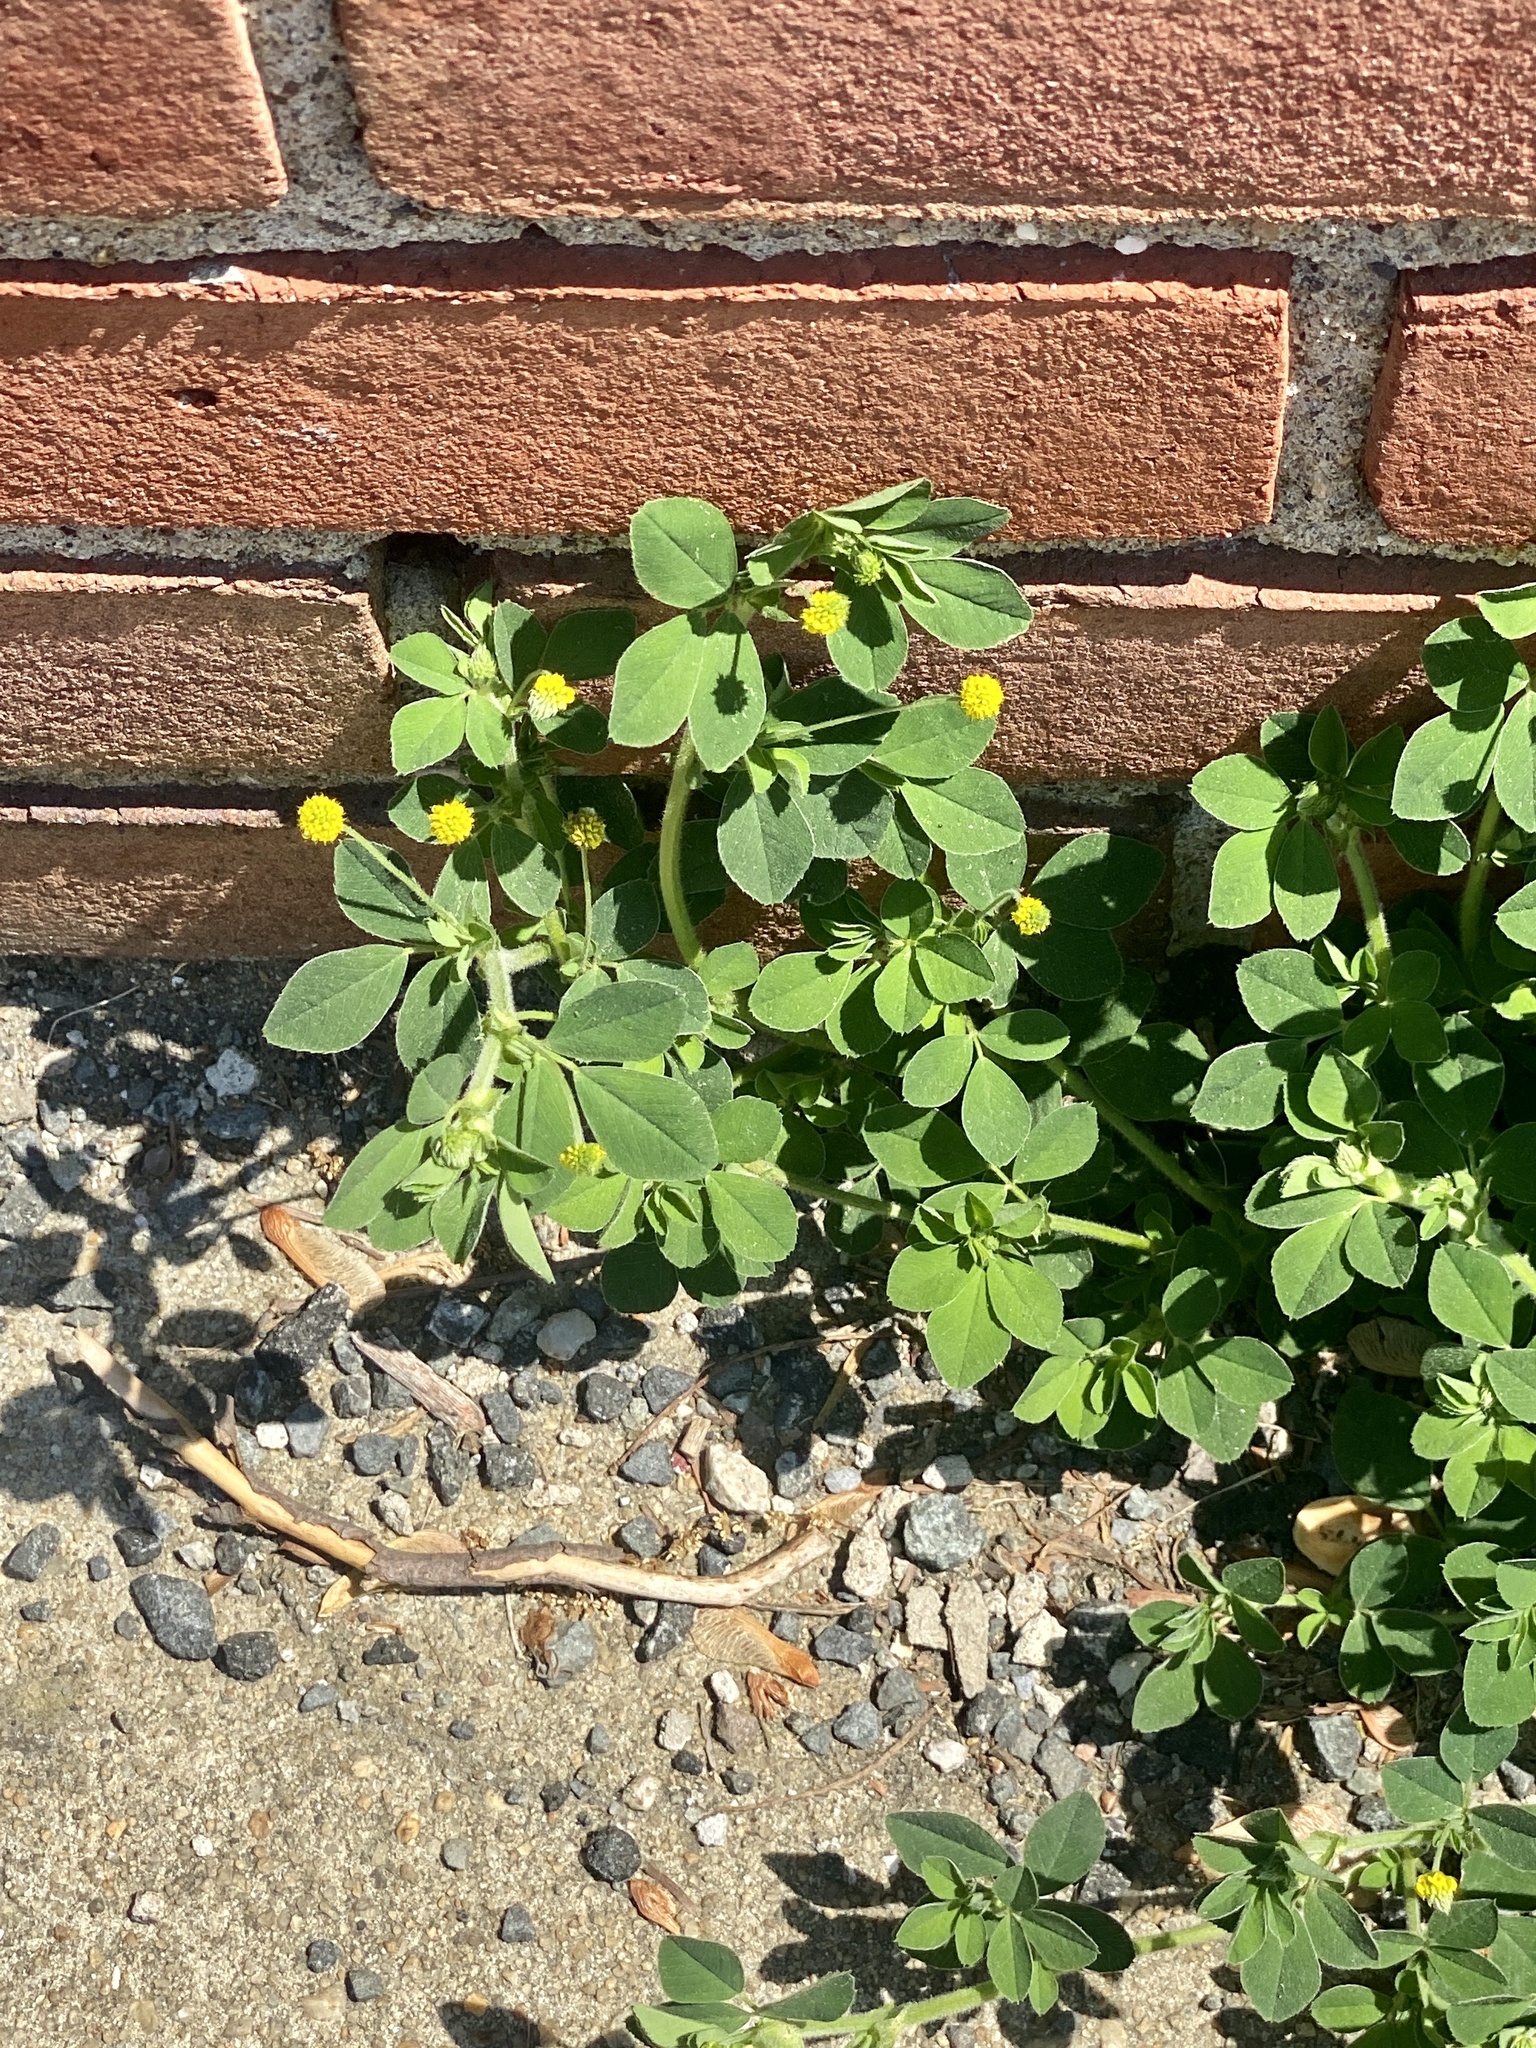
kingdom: Plantae
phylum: Tracheophyta
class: Magnoliopsida
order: Fabales
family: Fabaceae
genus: Medicago
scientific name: Medicago lupulina
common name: Black medick
